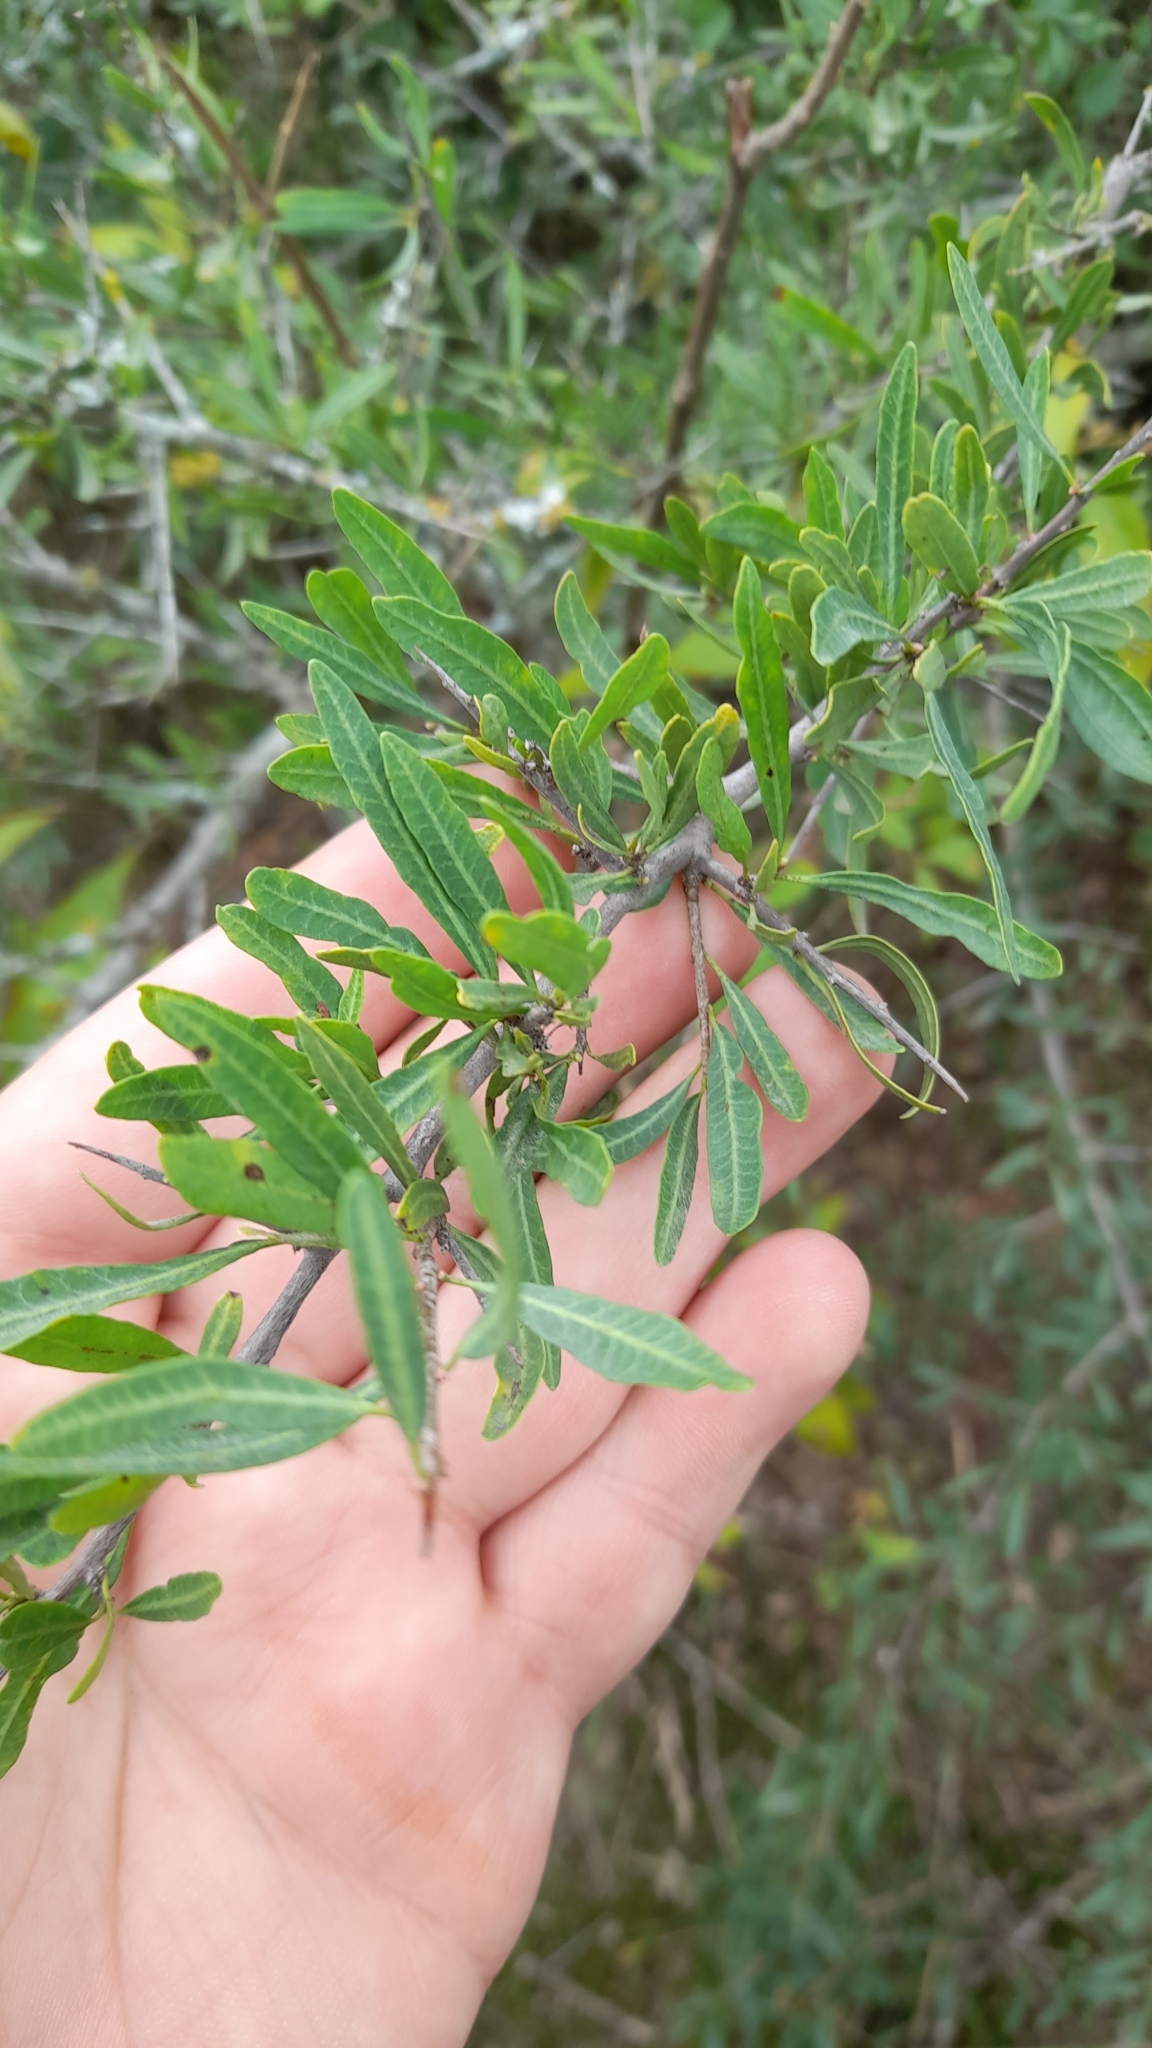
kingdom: Plantae
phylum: Tracheophyta
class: Magnoliopsida
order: Sapindales
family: Anacardiaceae
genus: Schinus
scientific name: Schinus longifolia
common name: Longleaf peppertree
